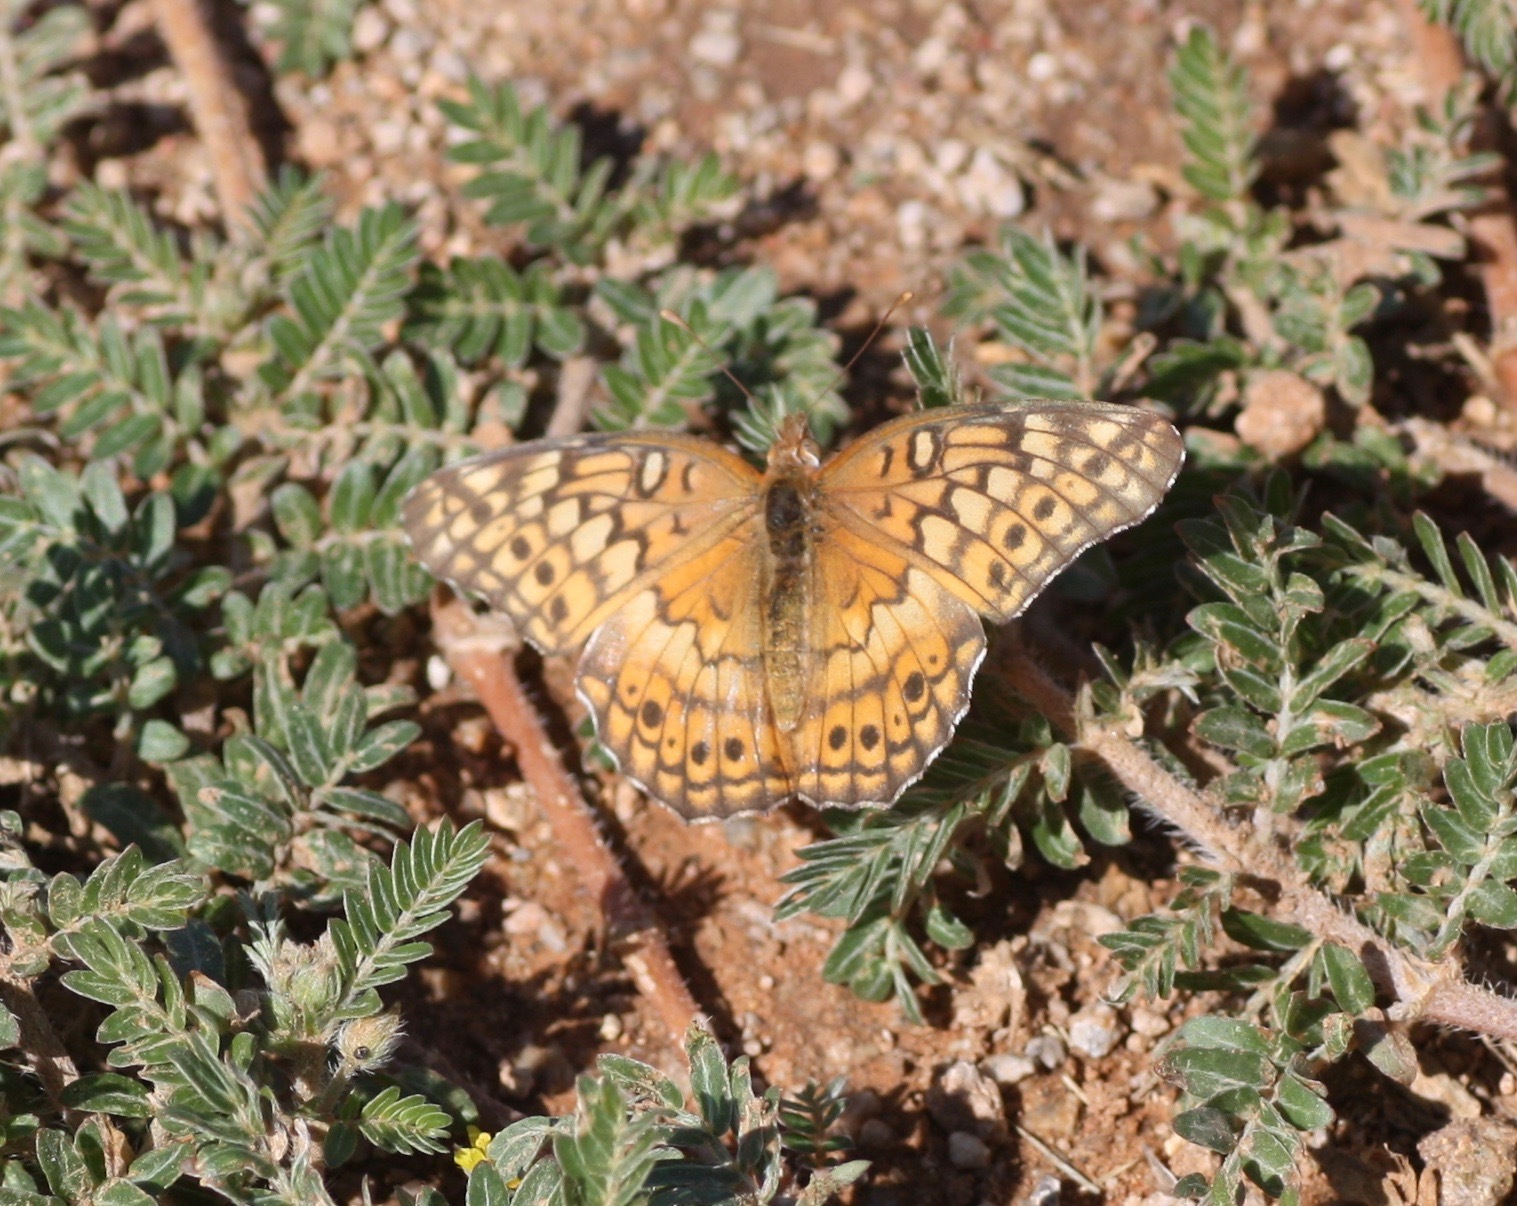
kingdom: Animalia
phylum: Arthropoda
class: Insecta
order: Lepidoptera
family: Nymphalidae
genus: Euptoieta
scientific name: Euptoieta claudia
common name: Variegated fritillary
